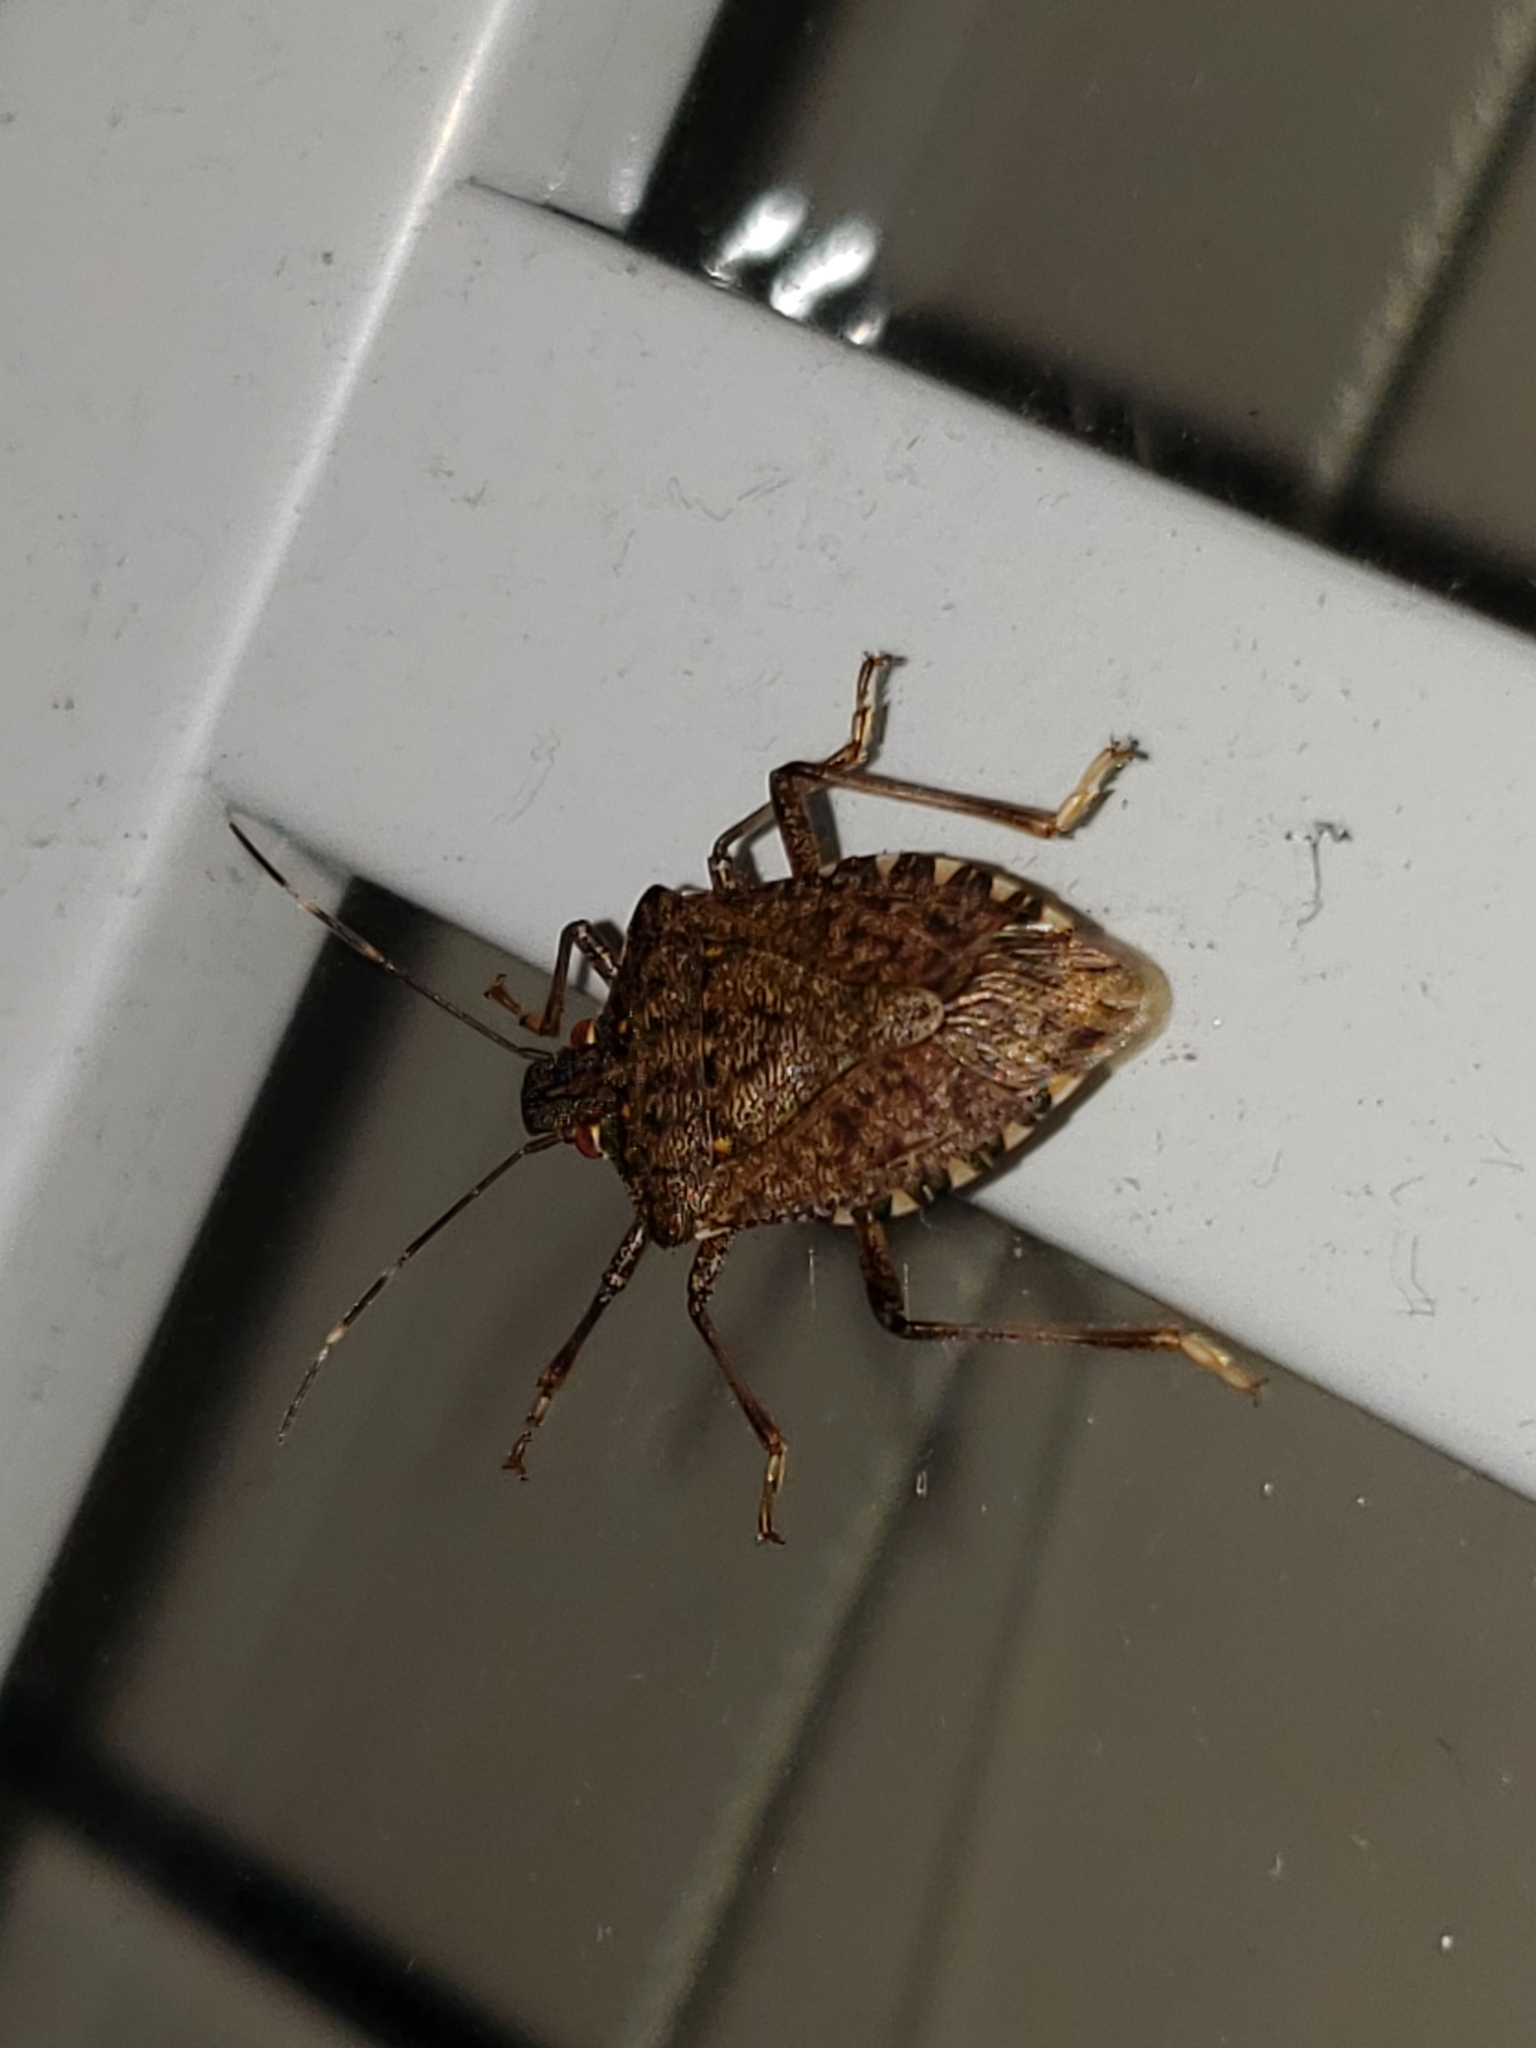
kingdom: Animalia
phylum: Arthropoda
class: Insecta
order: Hemiptera
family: Pentatomidae
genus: Halyomorpha
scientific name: Halyomorpha halys
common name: Brown marmorated stink bug
